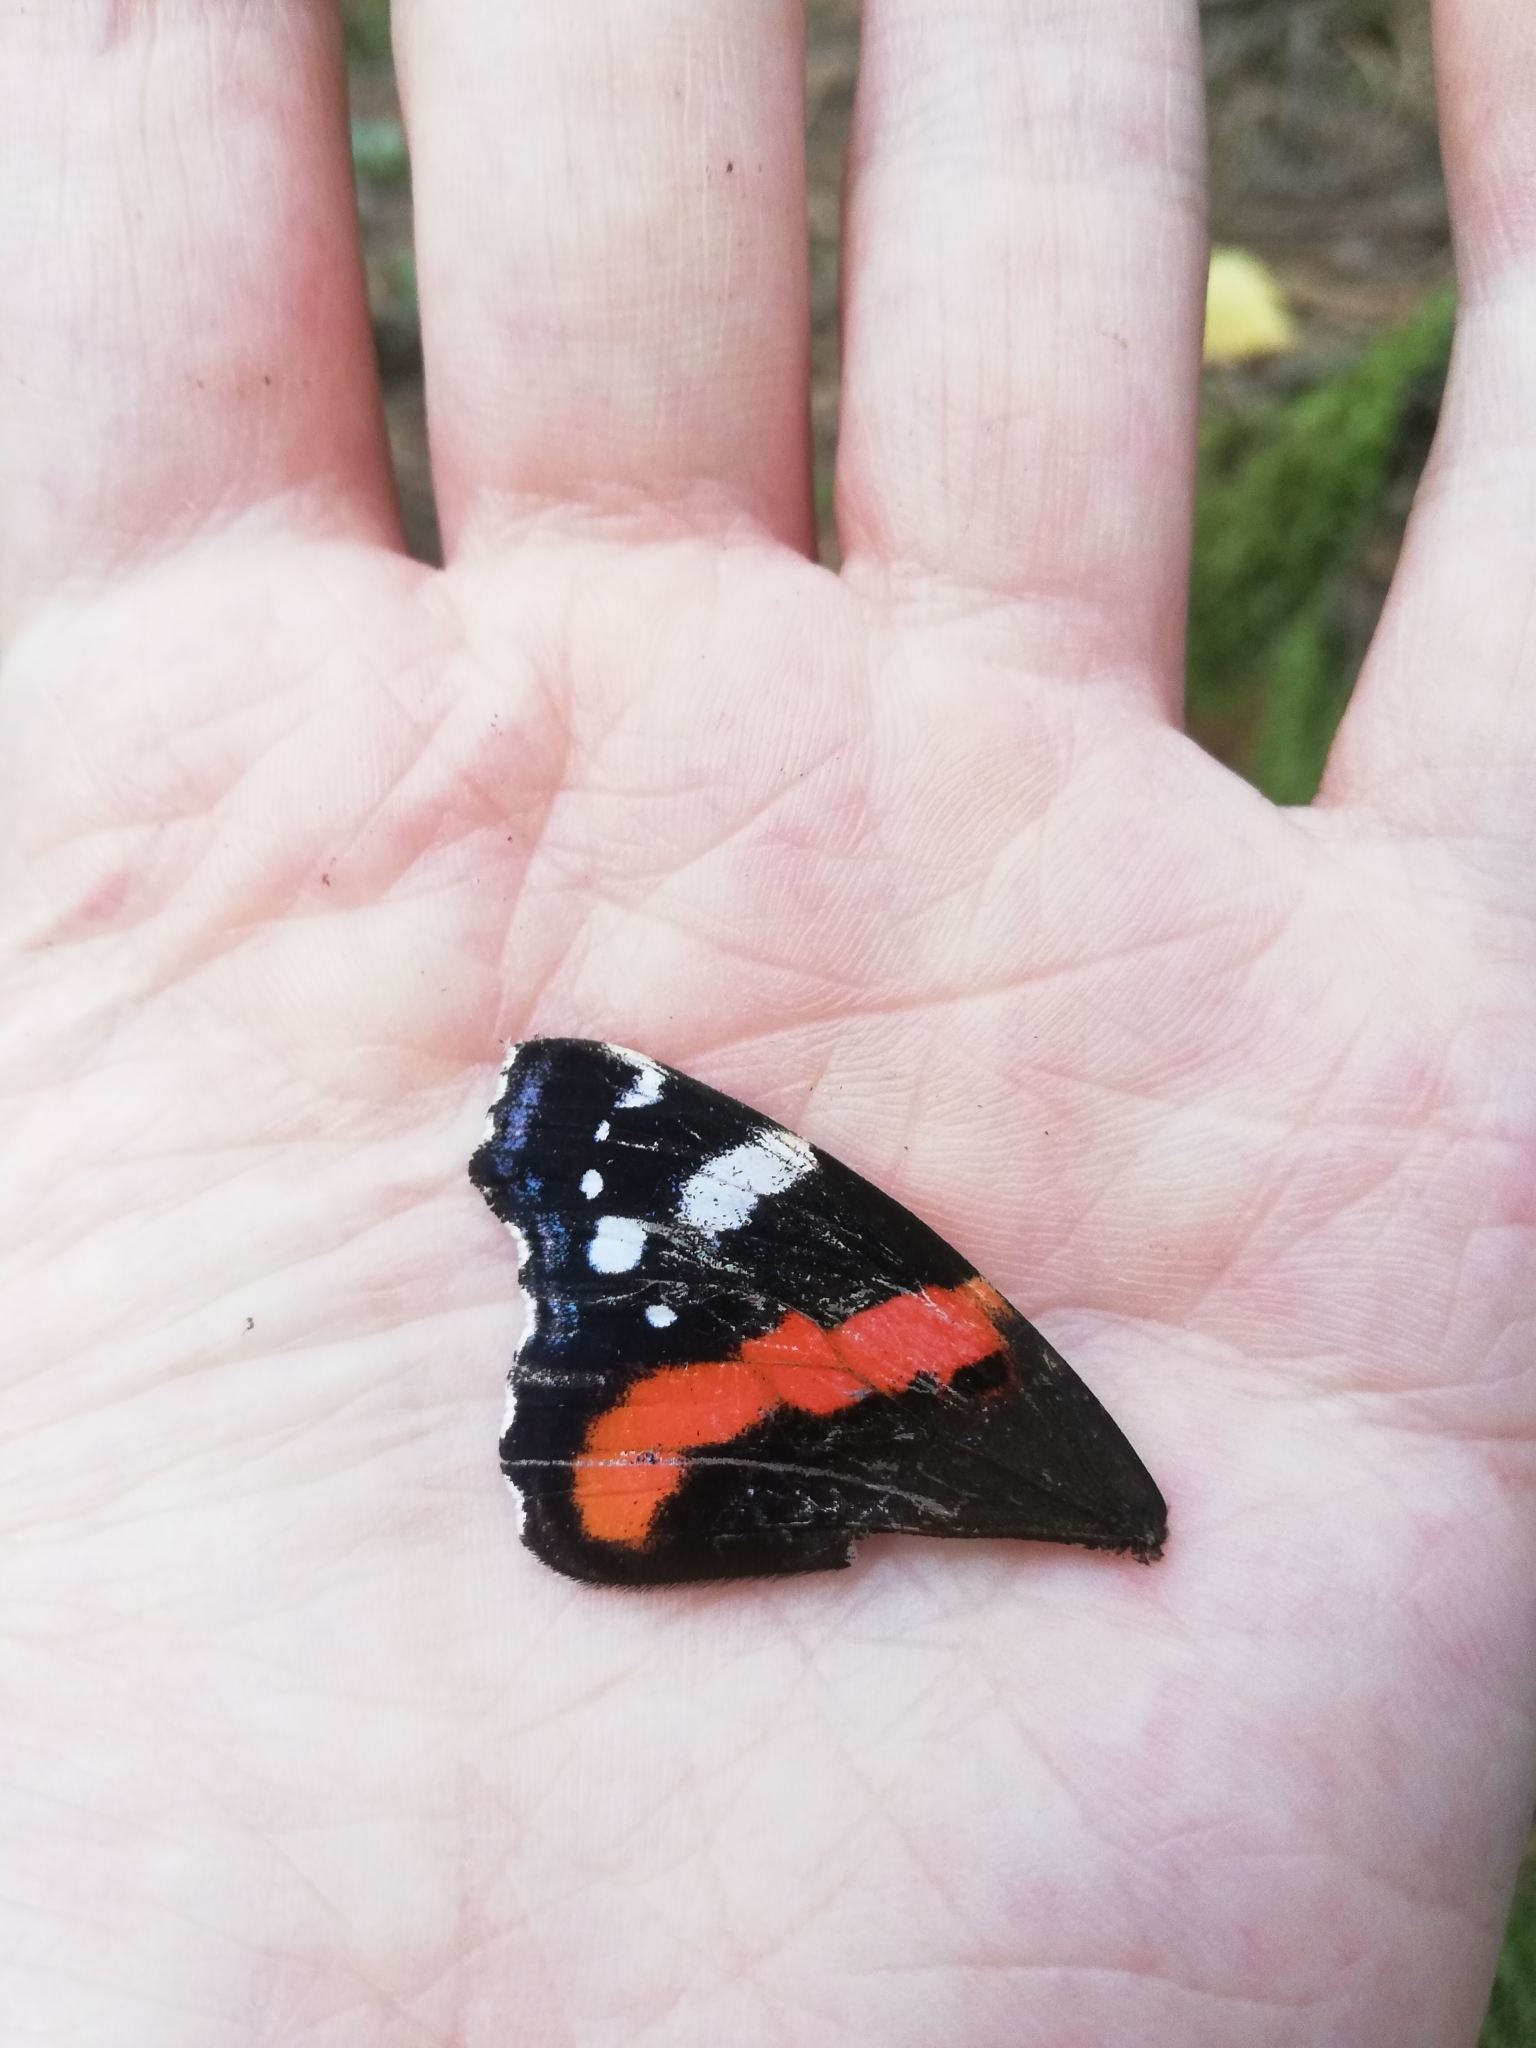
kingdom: Animalia
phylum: Arthropoda
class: Insecta
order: Lepidoptera
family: Nymphalidae
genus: Vanessa
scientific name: Vanessa atalanta
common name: Red admiral
